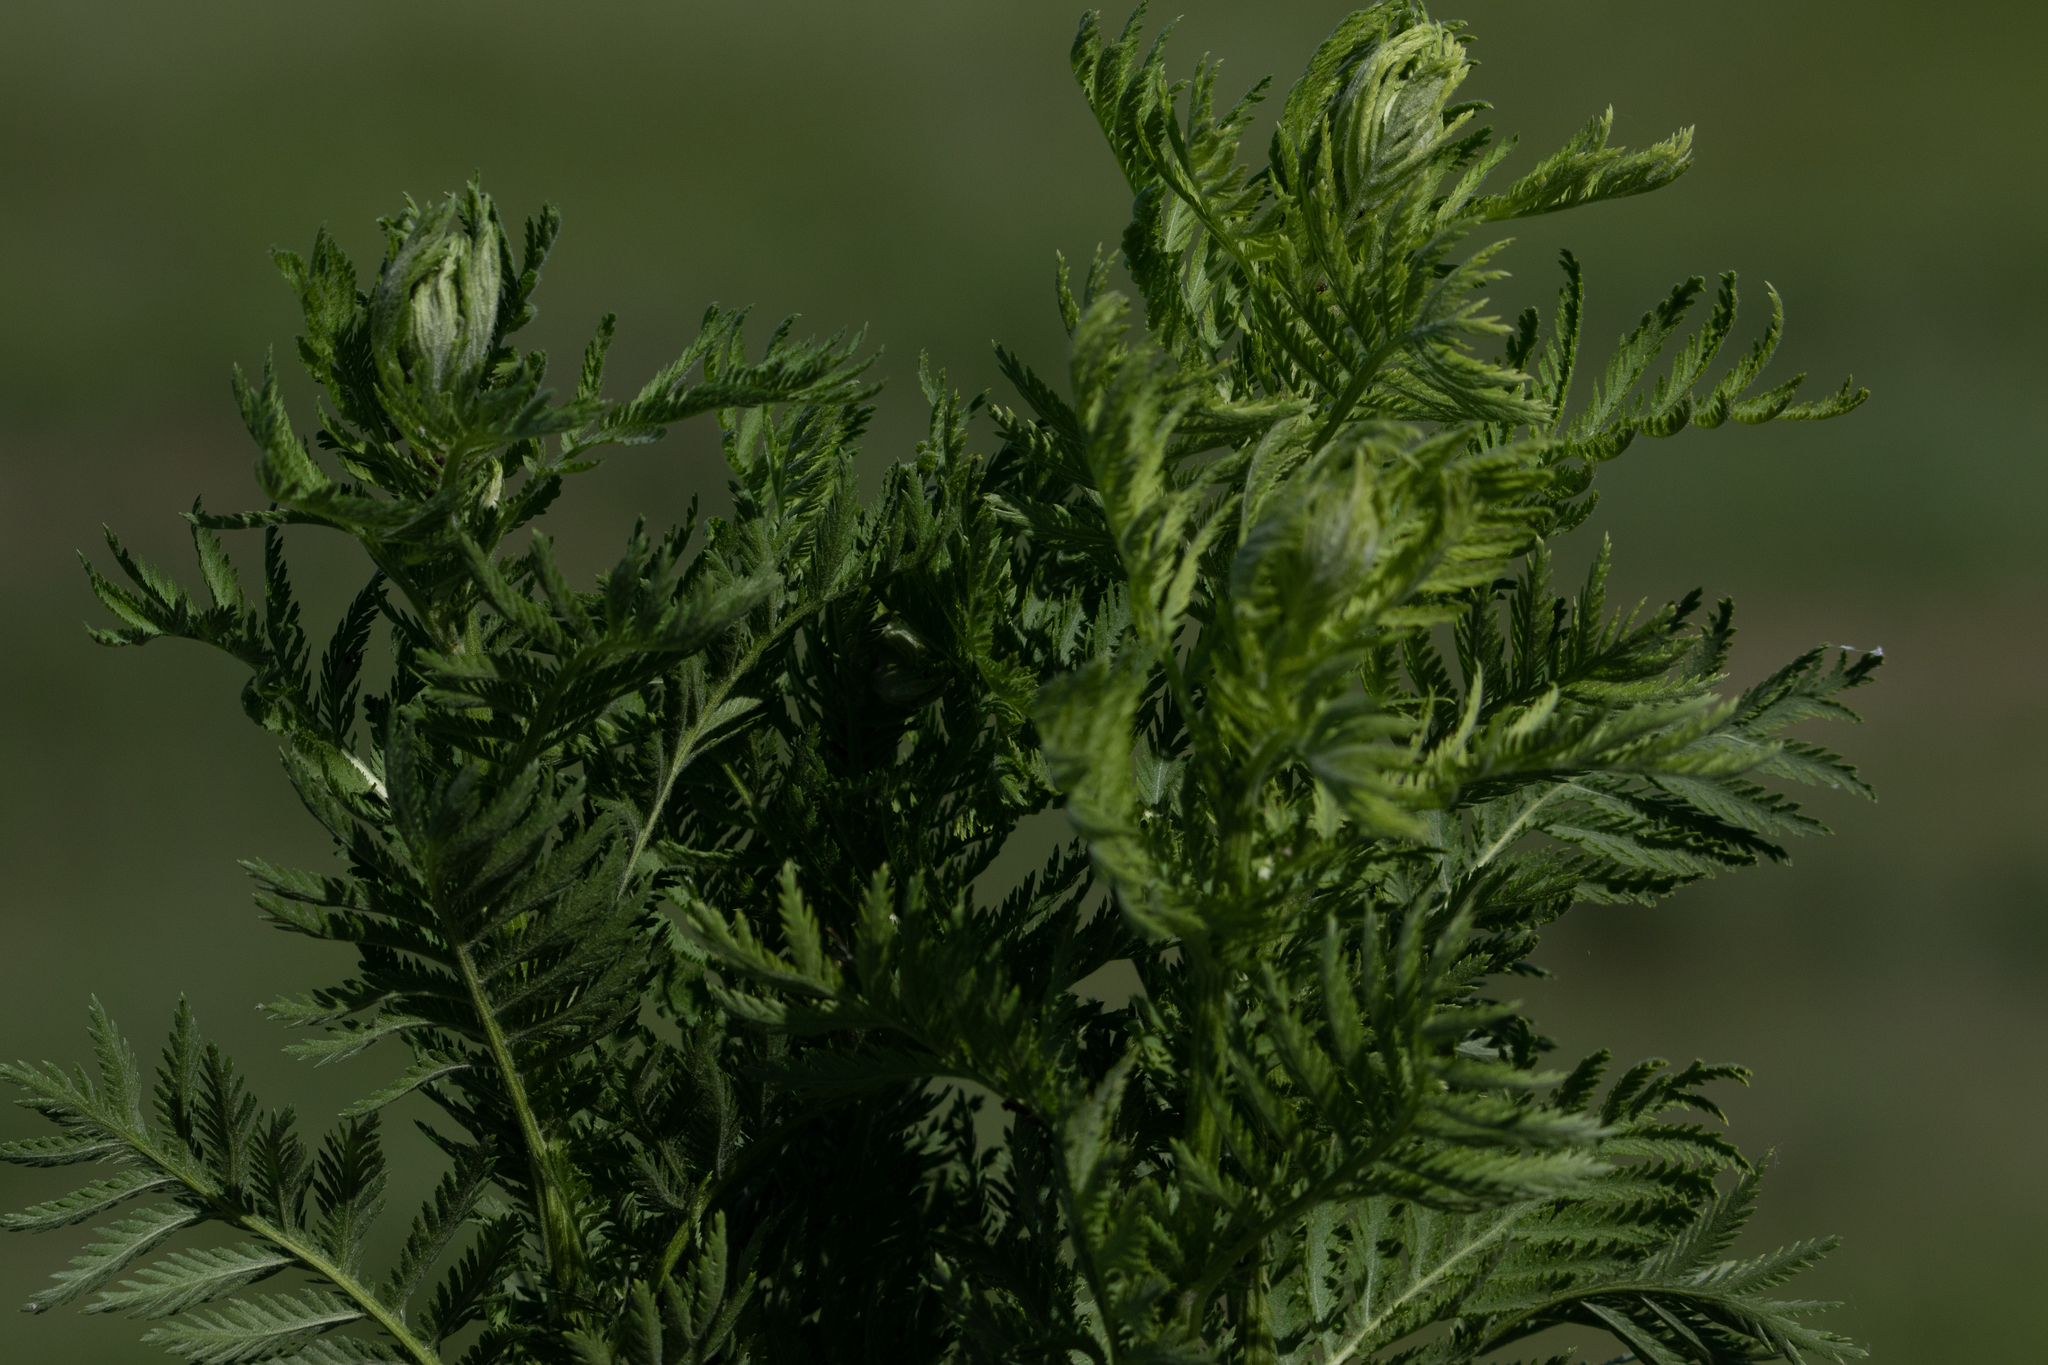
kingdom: Plantae
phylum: Tracheophyta
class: Magnoliopsida
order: Asterales
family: Asteraceae
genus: Tanacetum
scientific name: Tanacetum vulgare
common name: Common tansy
